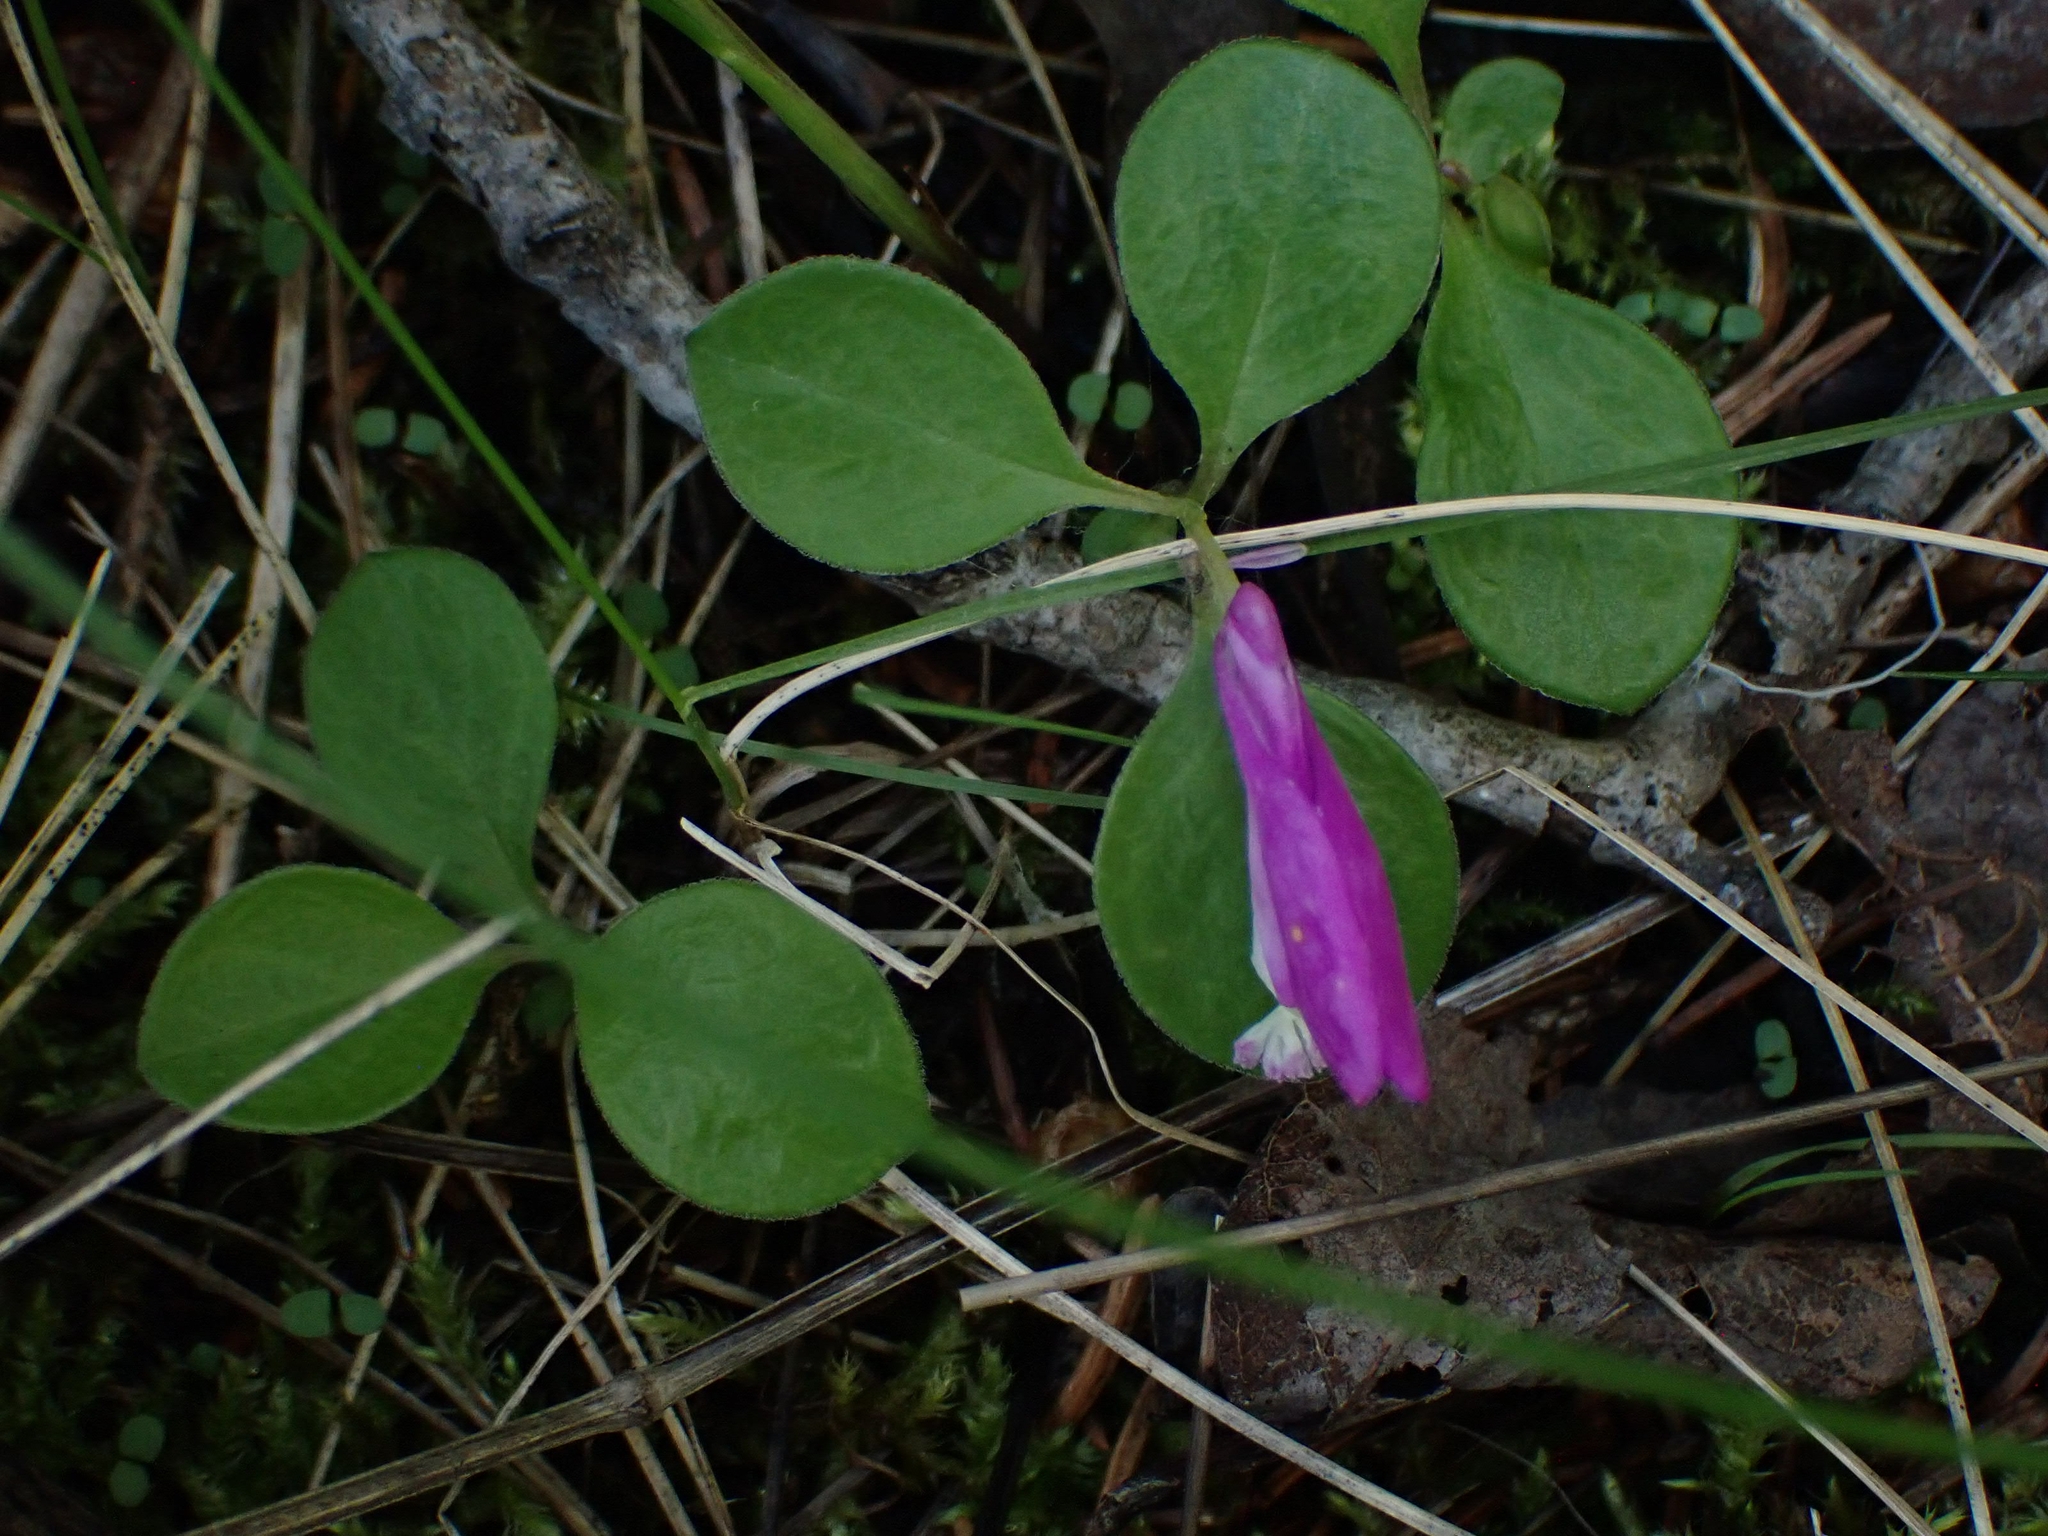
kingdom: Plantae
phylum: Tracheophyta
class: Magnoliopsida
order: Fabales
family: Polygalaceae
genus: Polygaloides
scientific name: Polygaloides paucifolia
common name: Bird-on-the-wing
